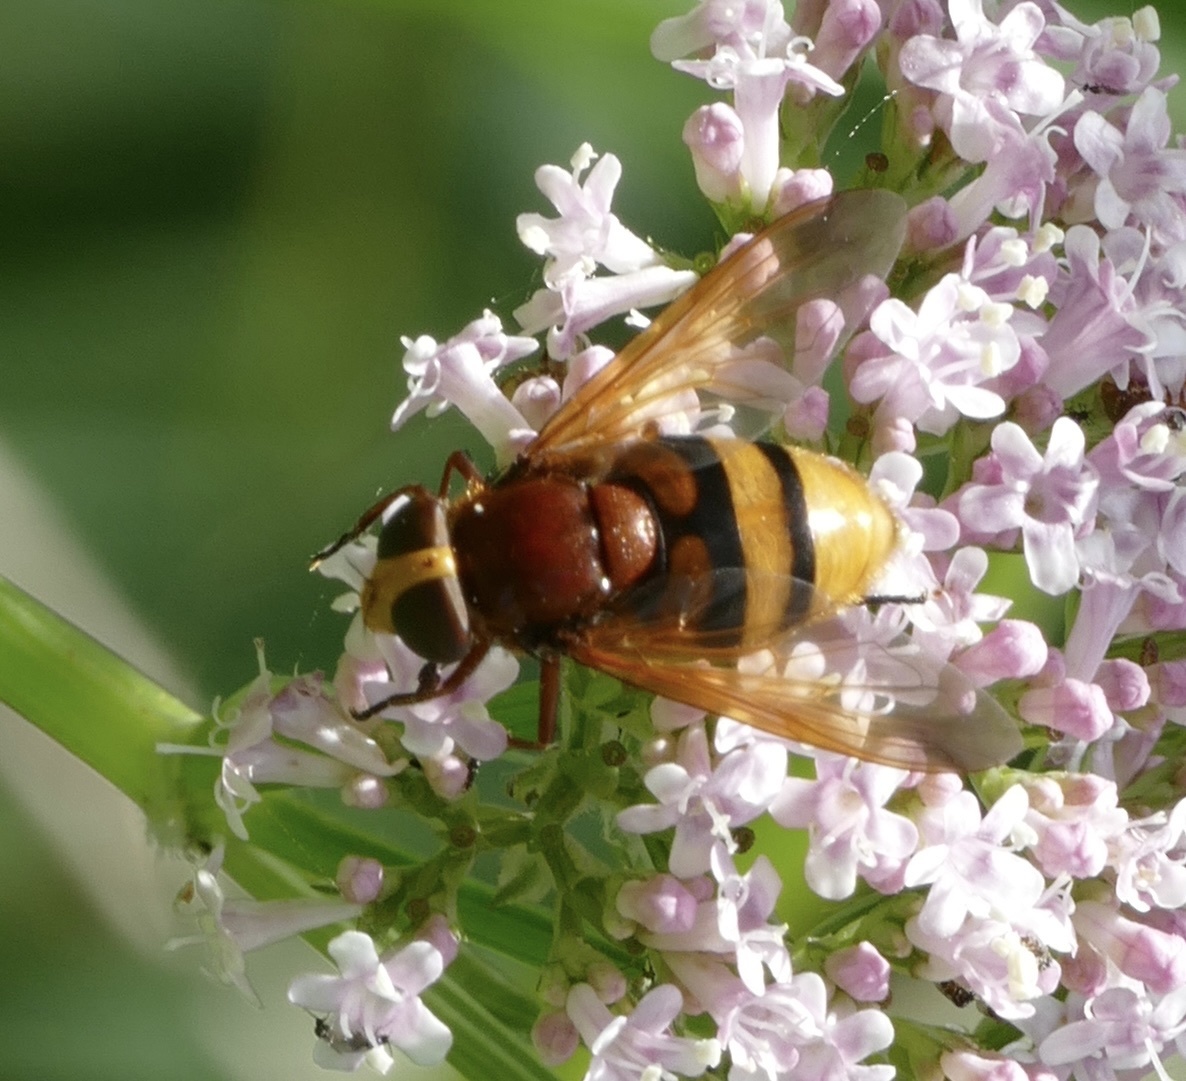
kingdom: Animalia
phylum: Arthropoda
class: Insecta
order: Diptera
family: Syrphidae
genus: Volucella
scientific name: Volucella zonaria
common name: Hornet hoverfly
